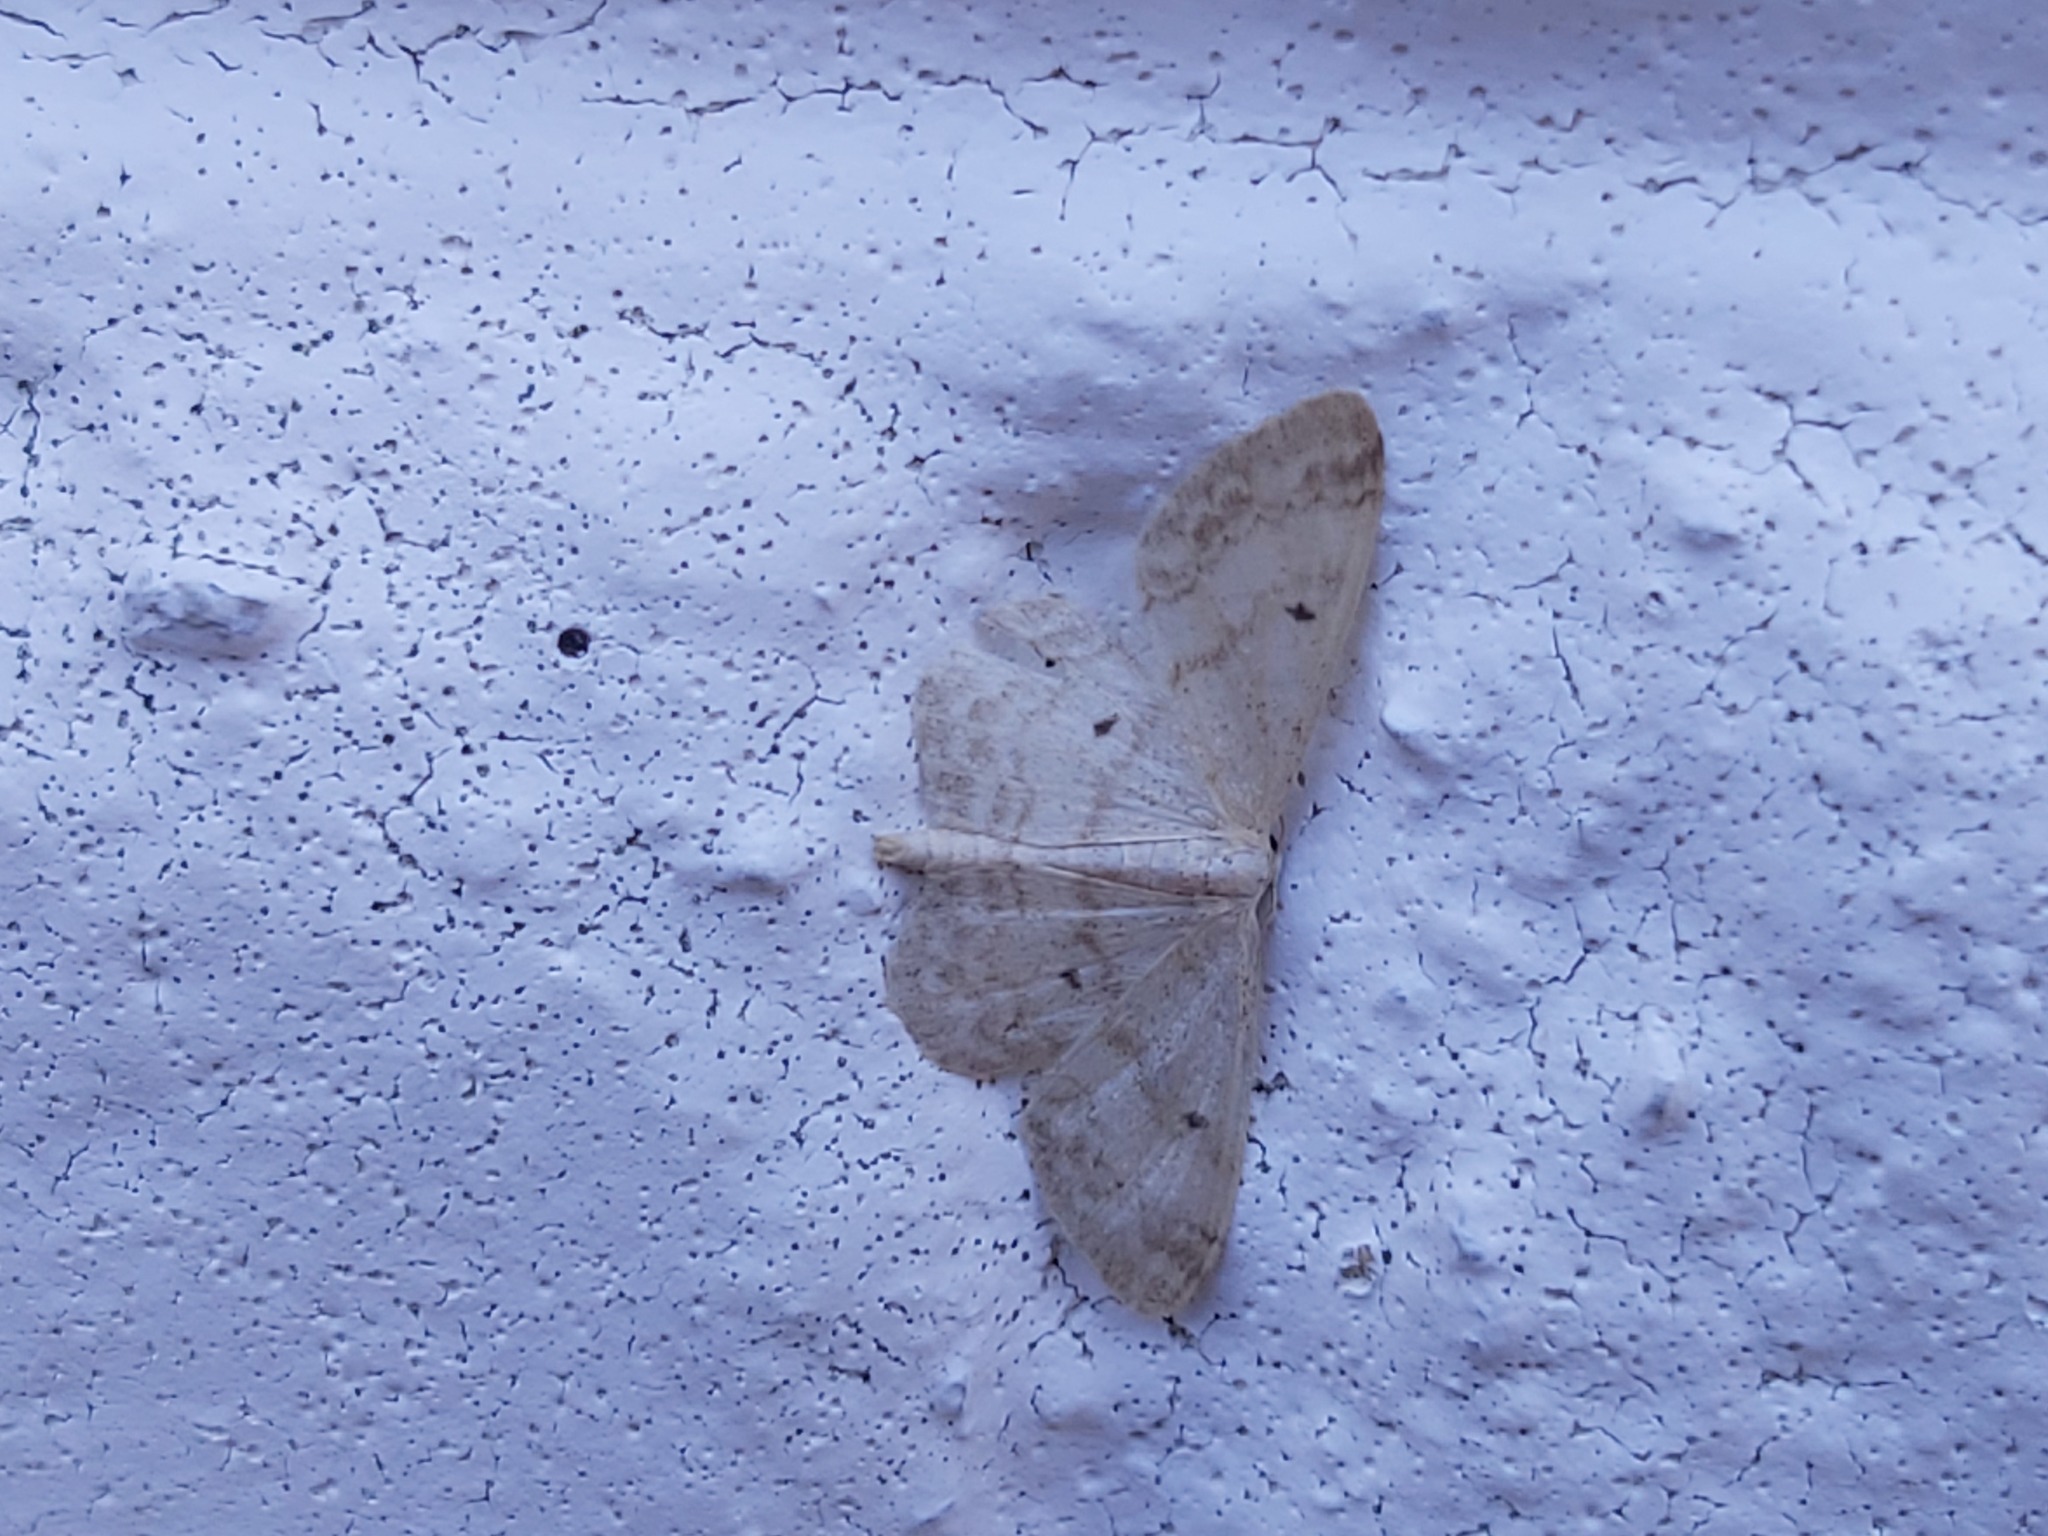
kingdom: Animalia
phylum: Arthropoda
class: Insecta
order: Lepidoptera
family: Geometridae
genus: Idaea
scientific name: Idaea biselata
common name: Small fan-footed wave
